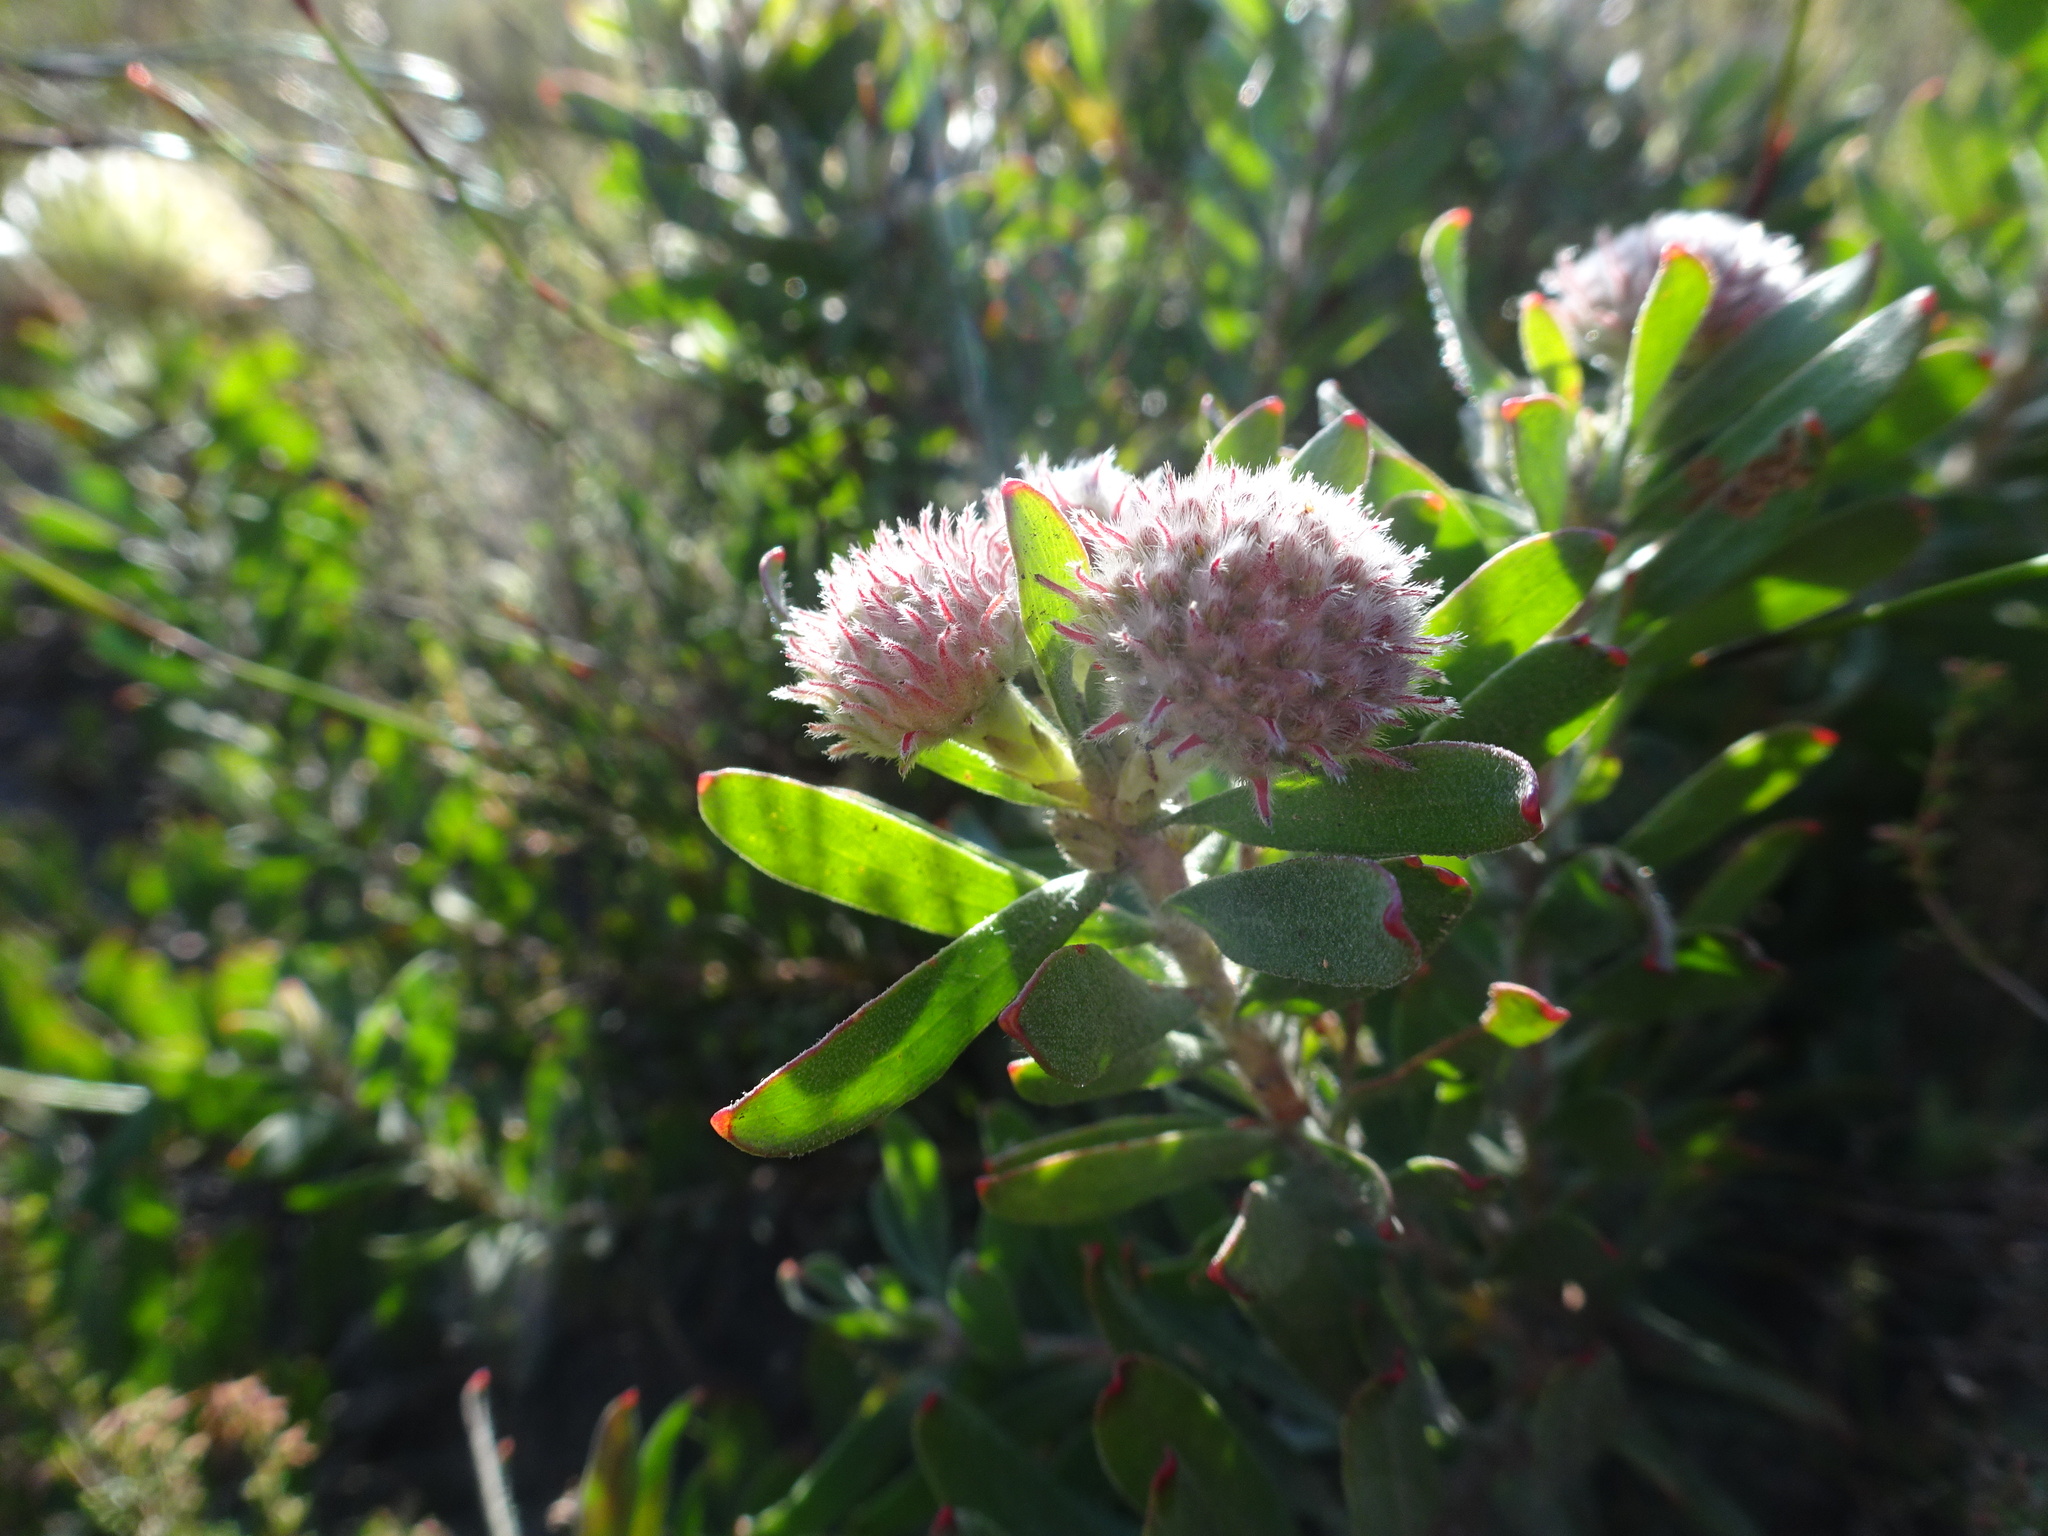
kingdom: Plantae
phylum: Tracheophyta
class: Magnoliopsida
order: Proteales
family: Proteaceae
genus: Leucospermum
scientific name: Leucospermum heterophyllum
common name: Trident pincushion
